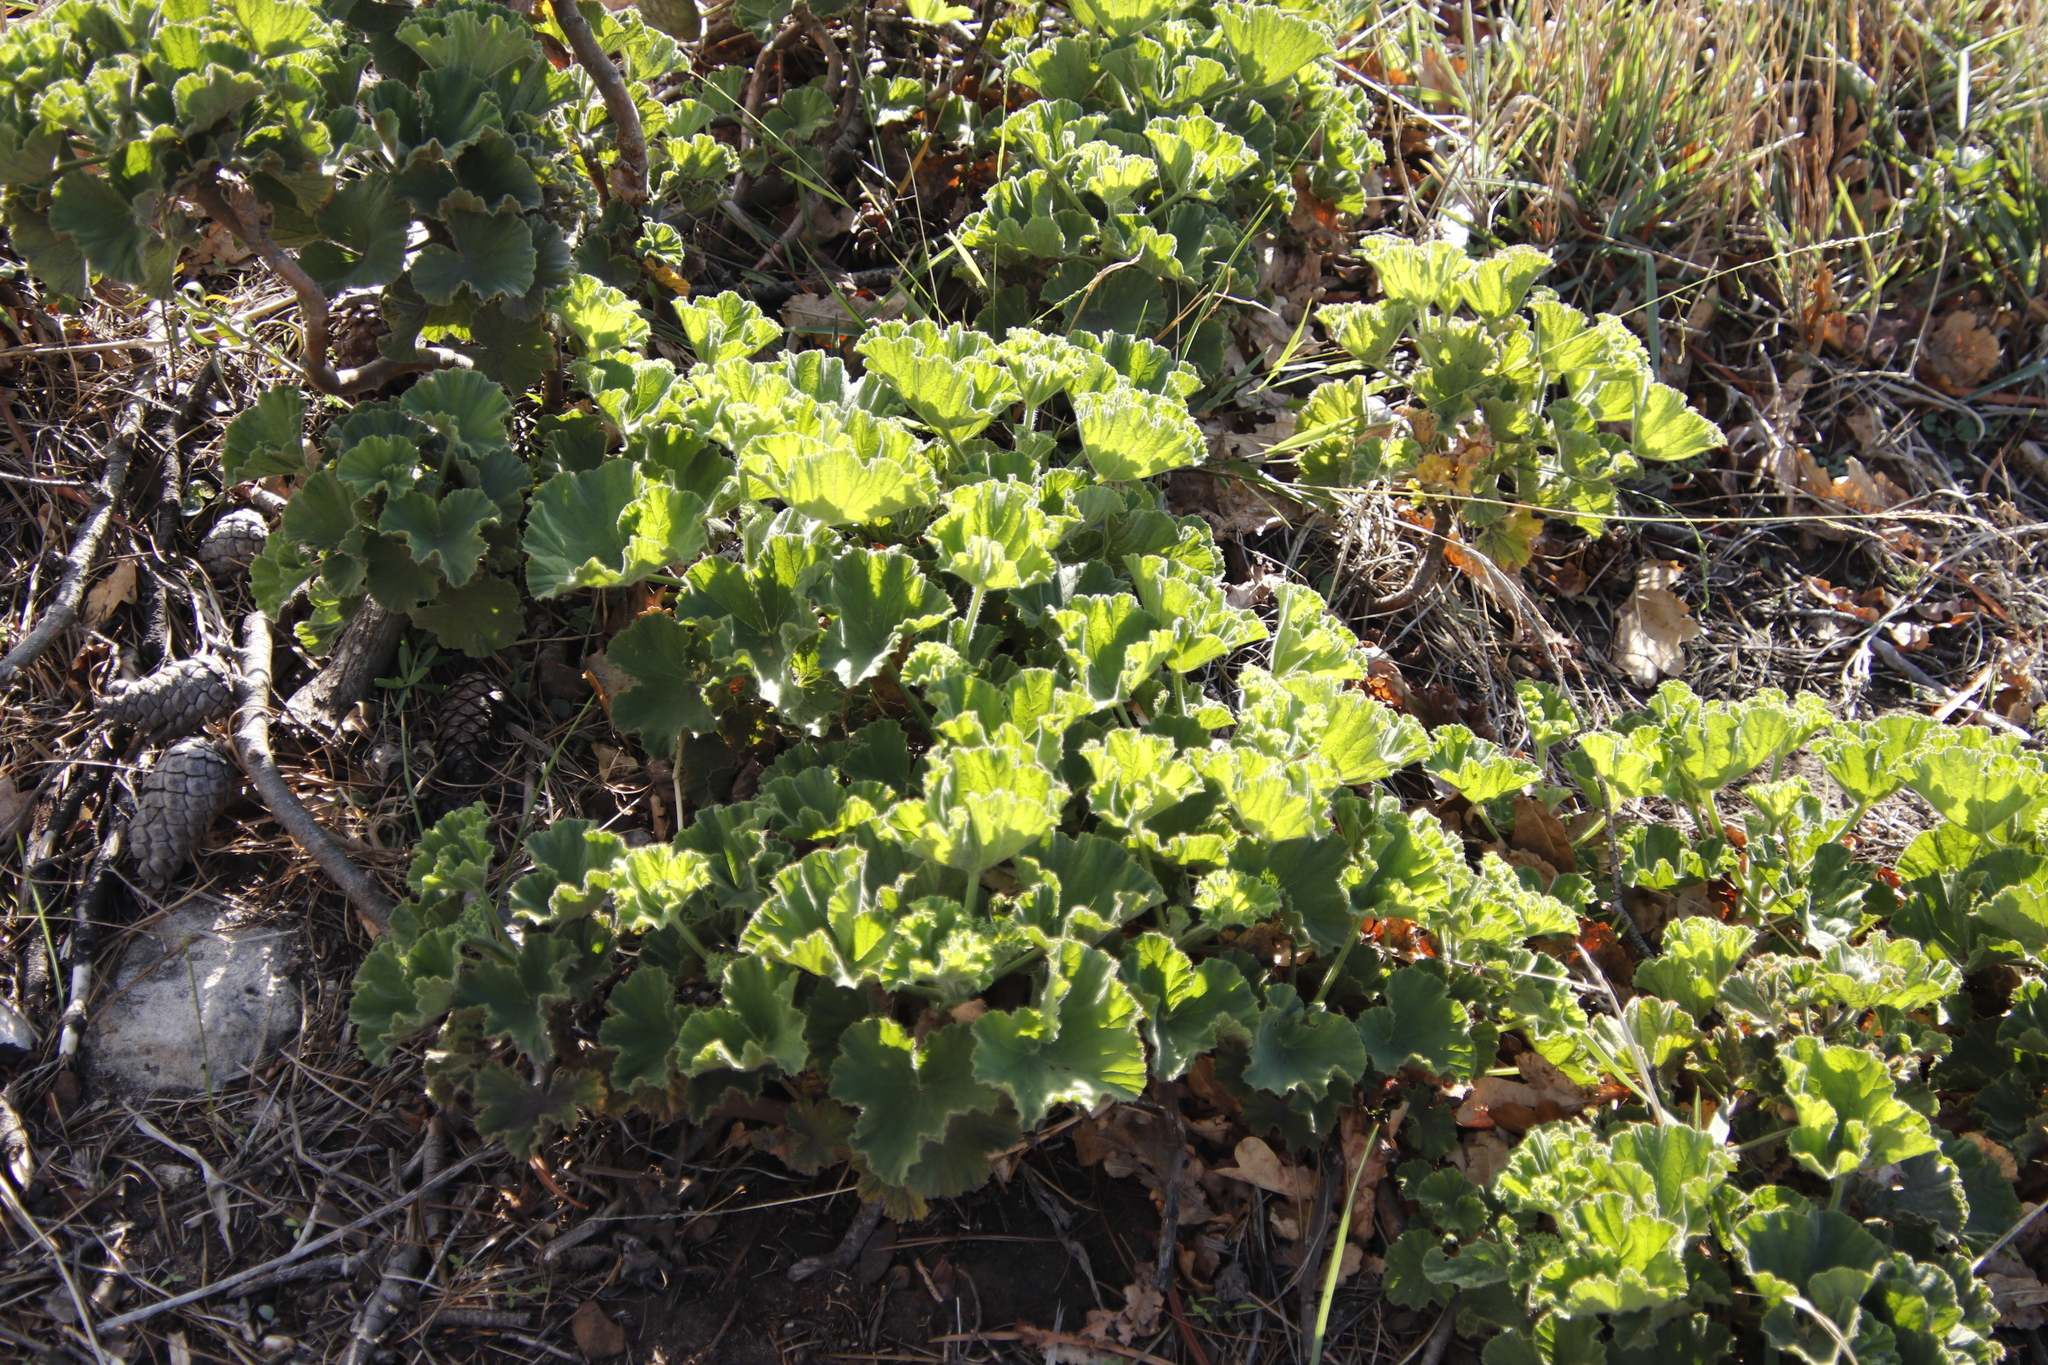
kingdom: Plantae
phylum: Tracheophyta
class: Magnoliopsida
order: Geraniales
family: Geraniaceae
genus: Pelargonium
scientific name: Pelargonium cucullatum
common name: Tree pelargonium
